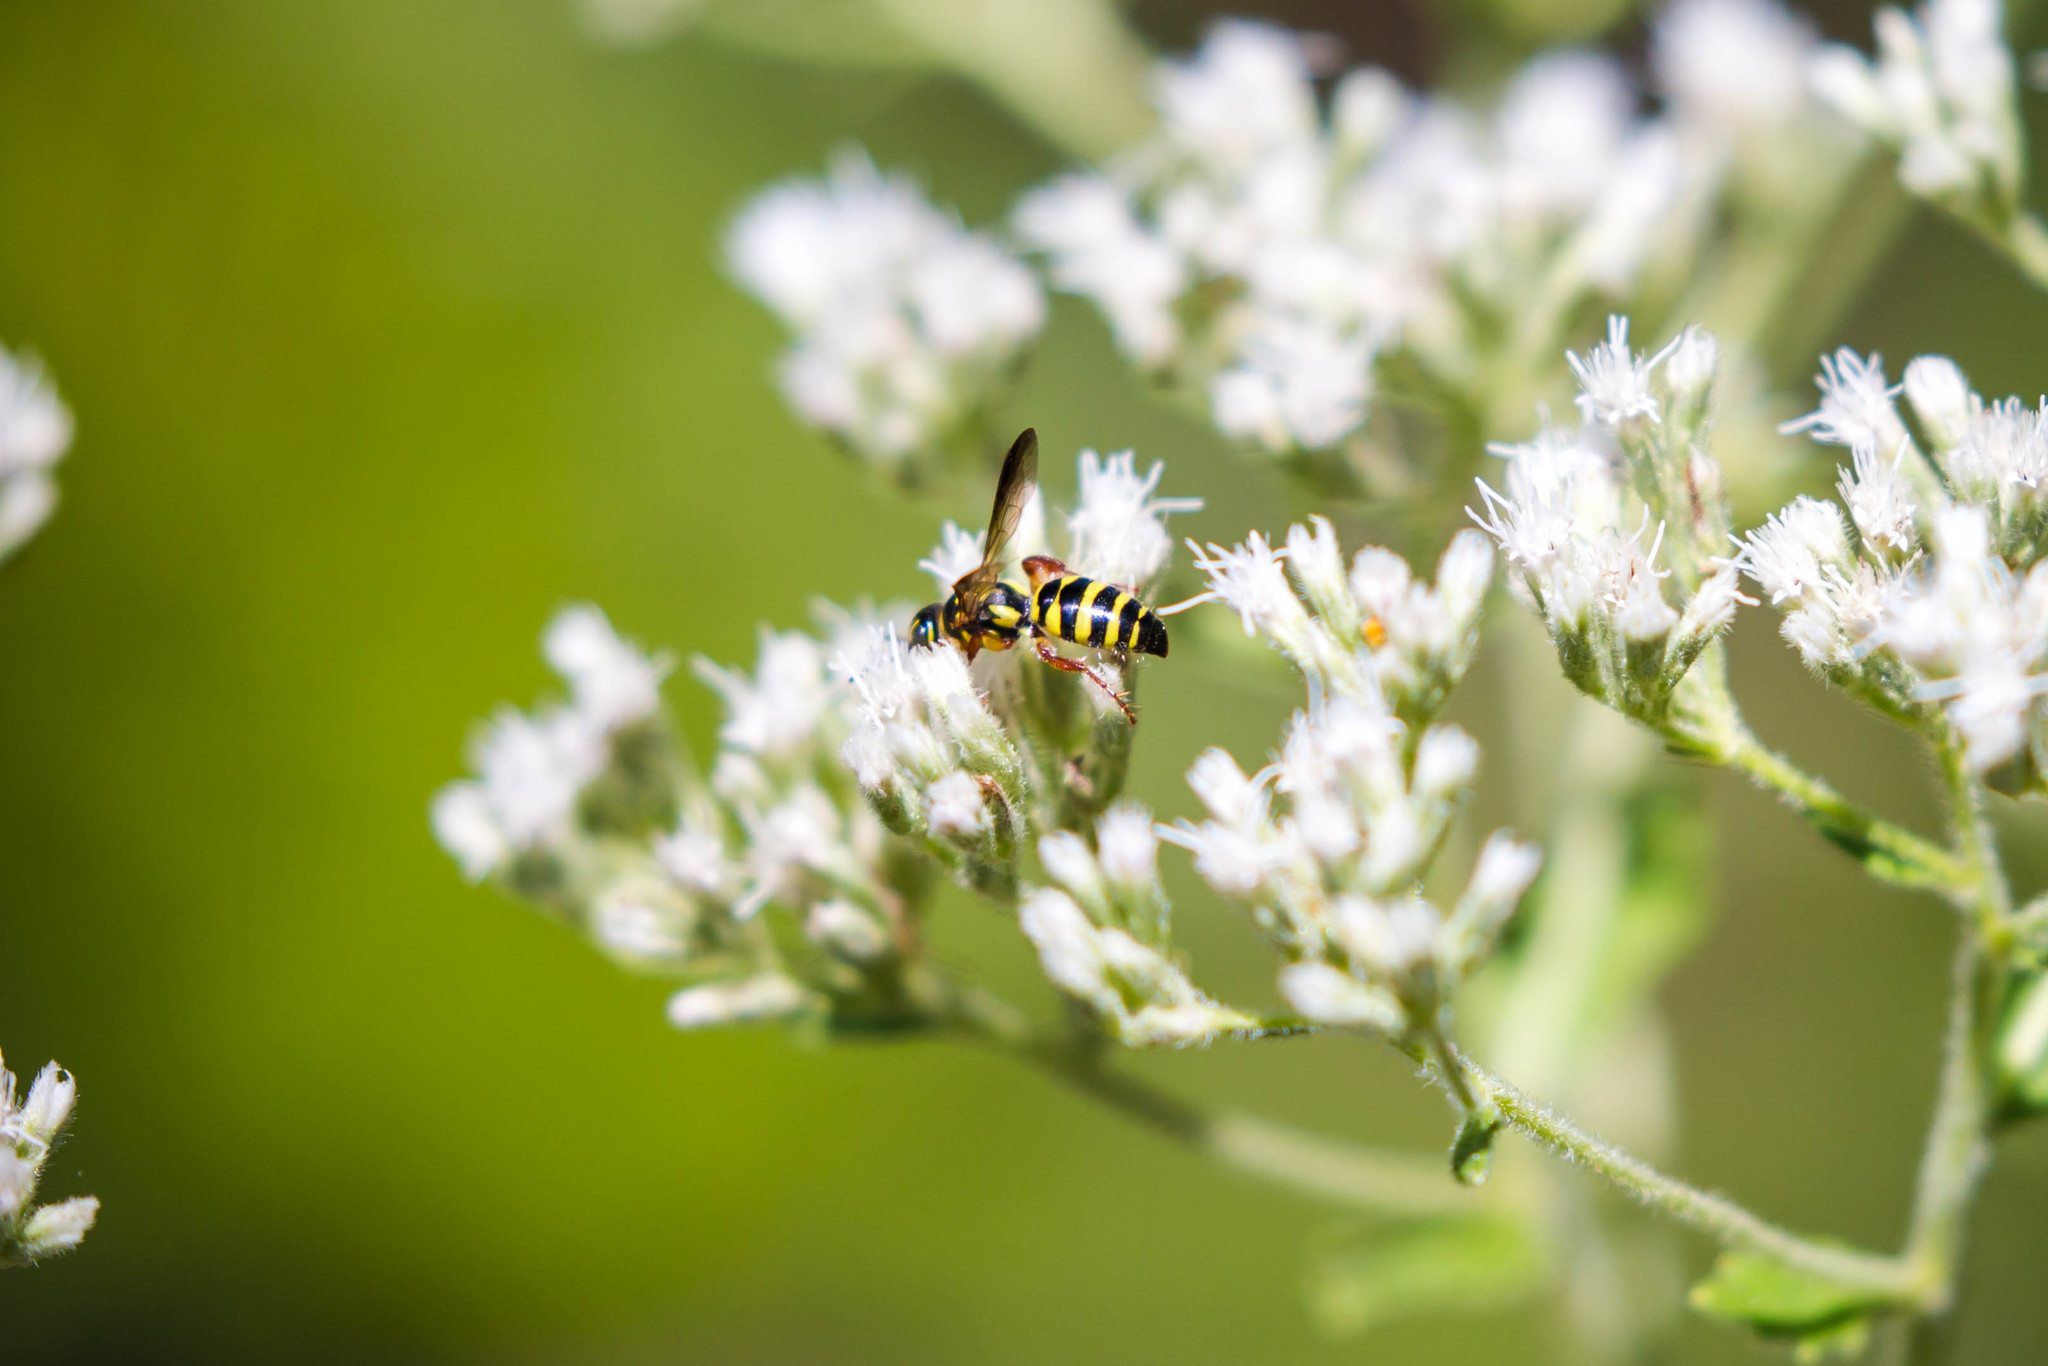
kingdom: Animalia
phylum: Arthropoda
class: Insecta
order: Hymenoptera
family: Tiphiidae
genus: Myzinum
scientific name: Myzinum maculatum
